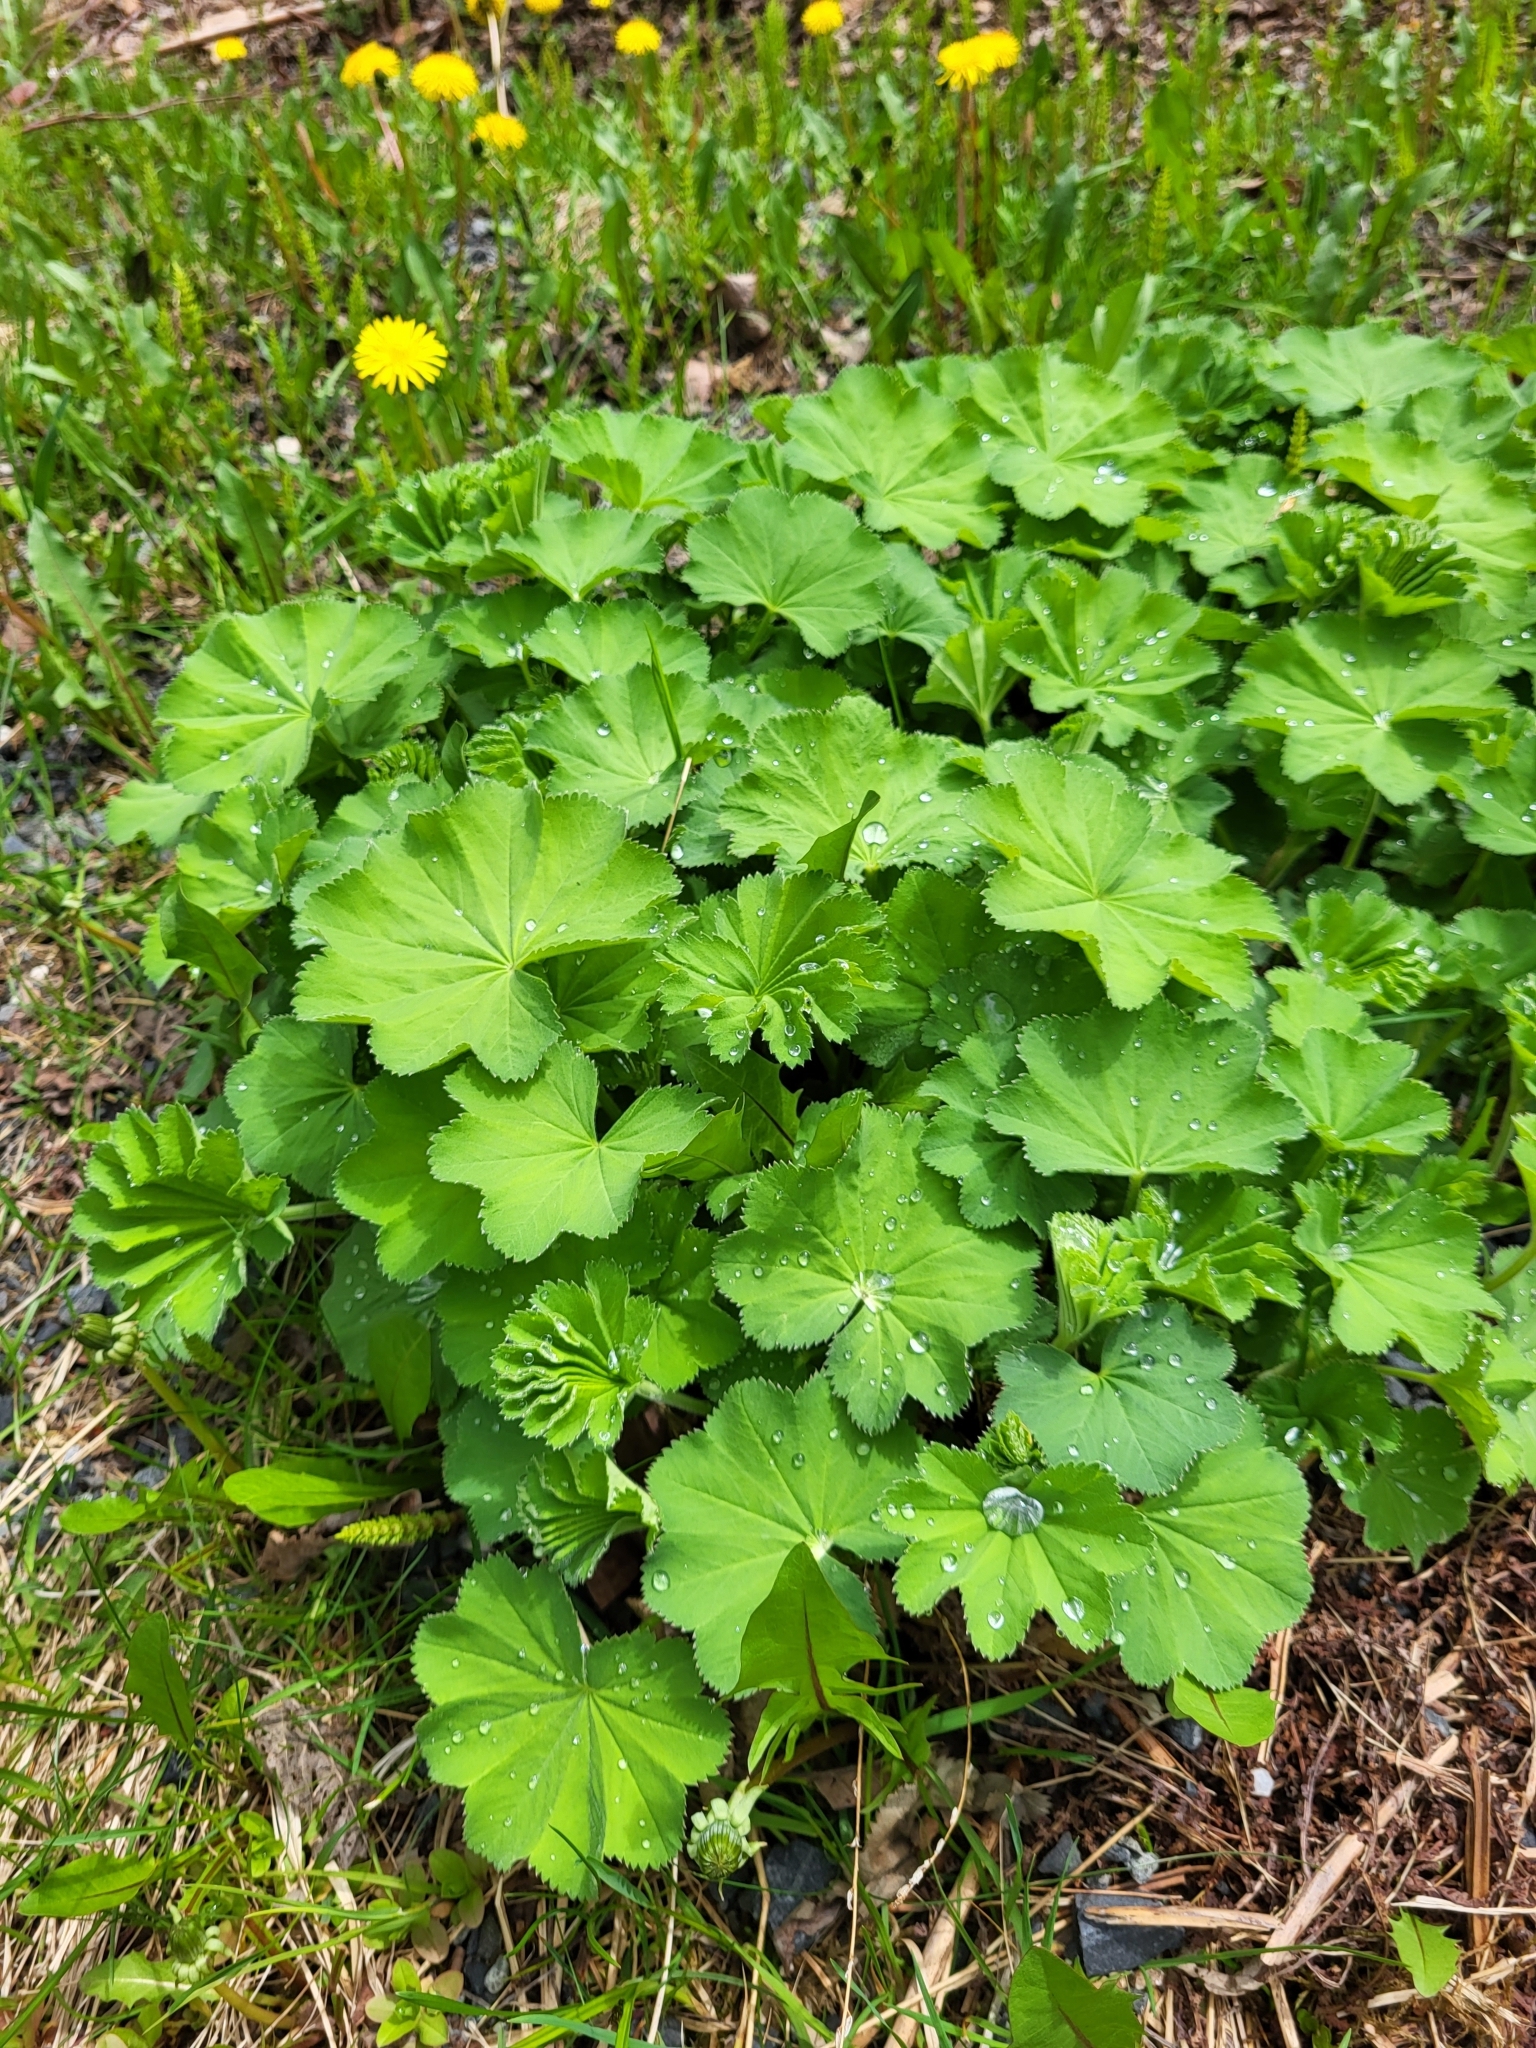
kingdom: Plantae
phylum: Tracheophyta
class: Magnoliopsida
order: Rosales
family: Rosaceae
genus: Alchemilla
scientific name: Alchemilla mollis
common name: Lady's-mantle
